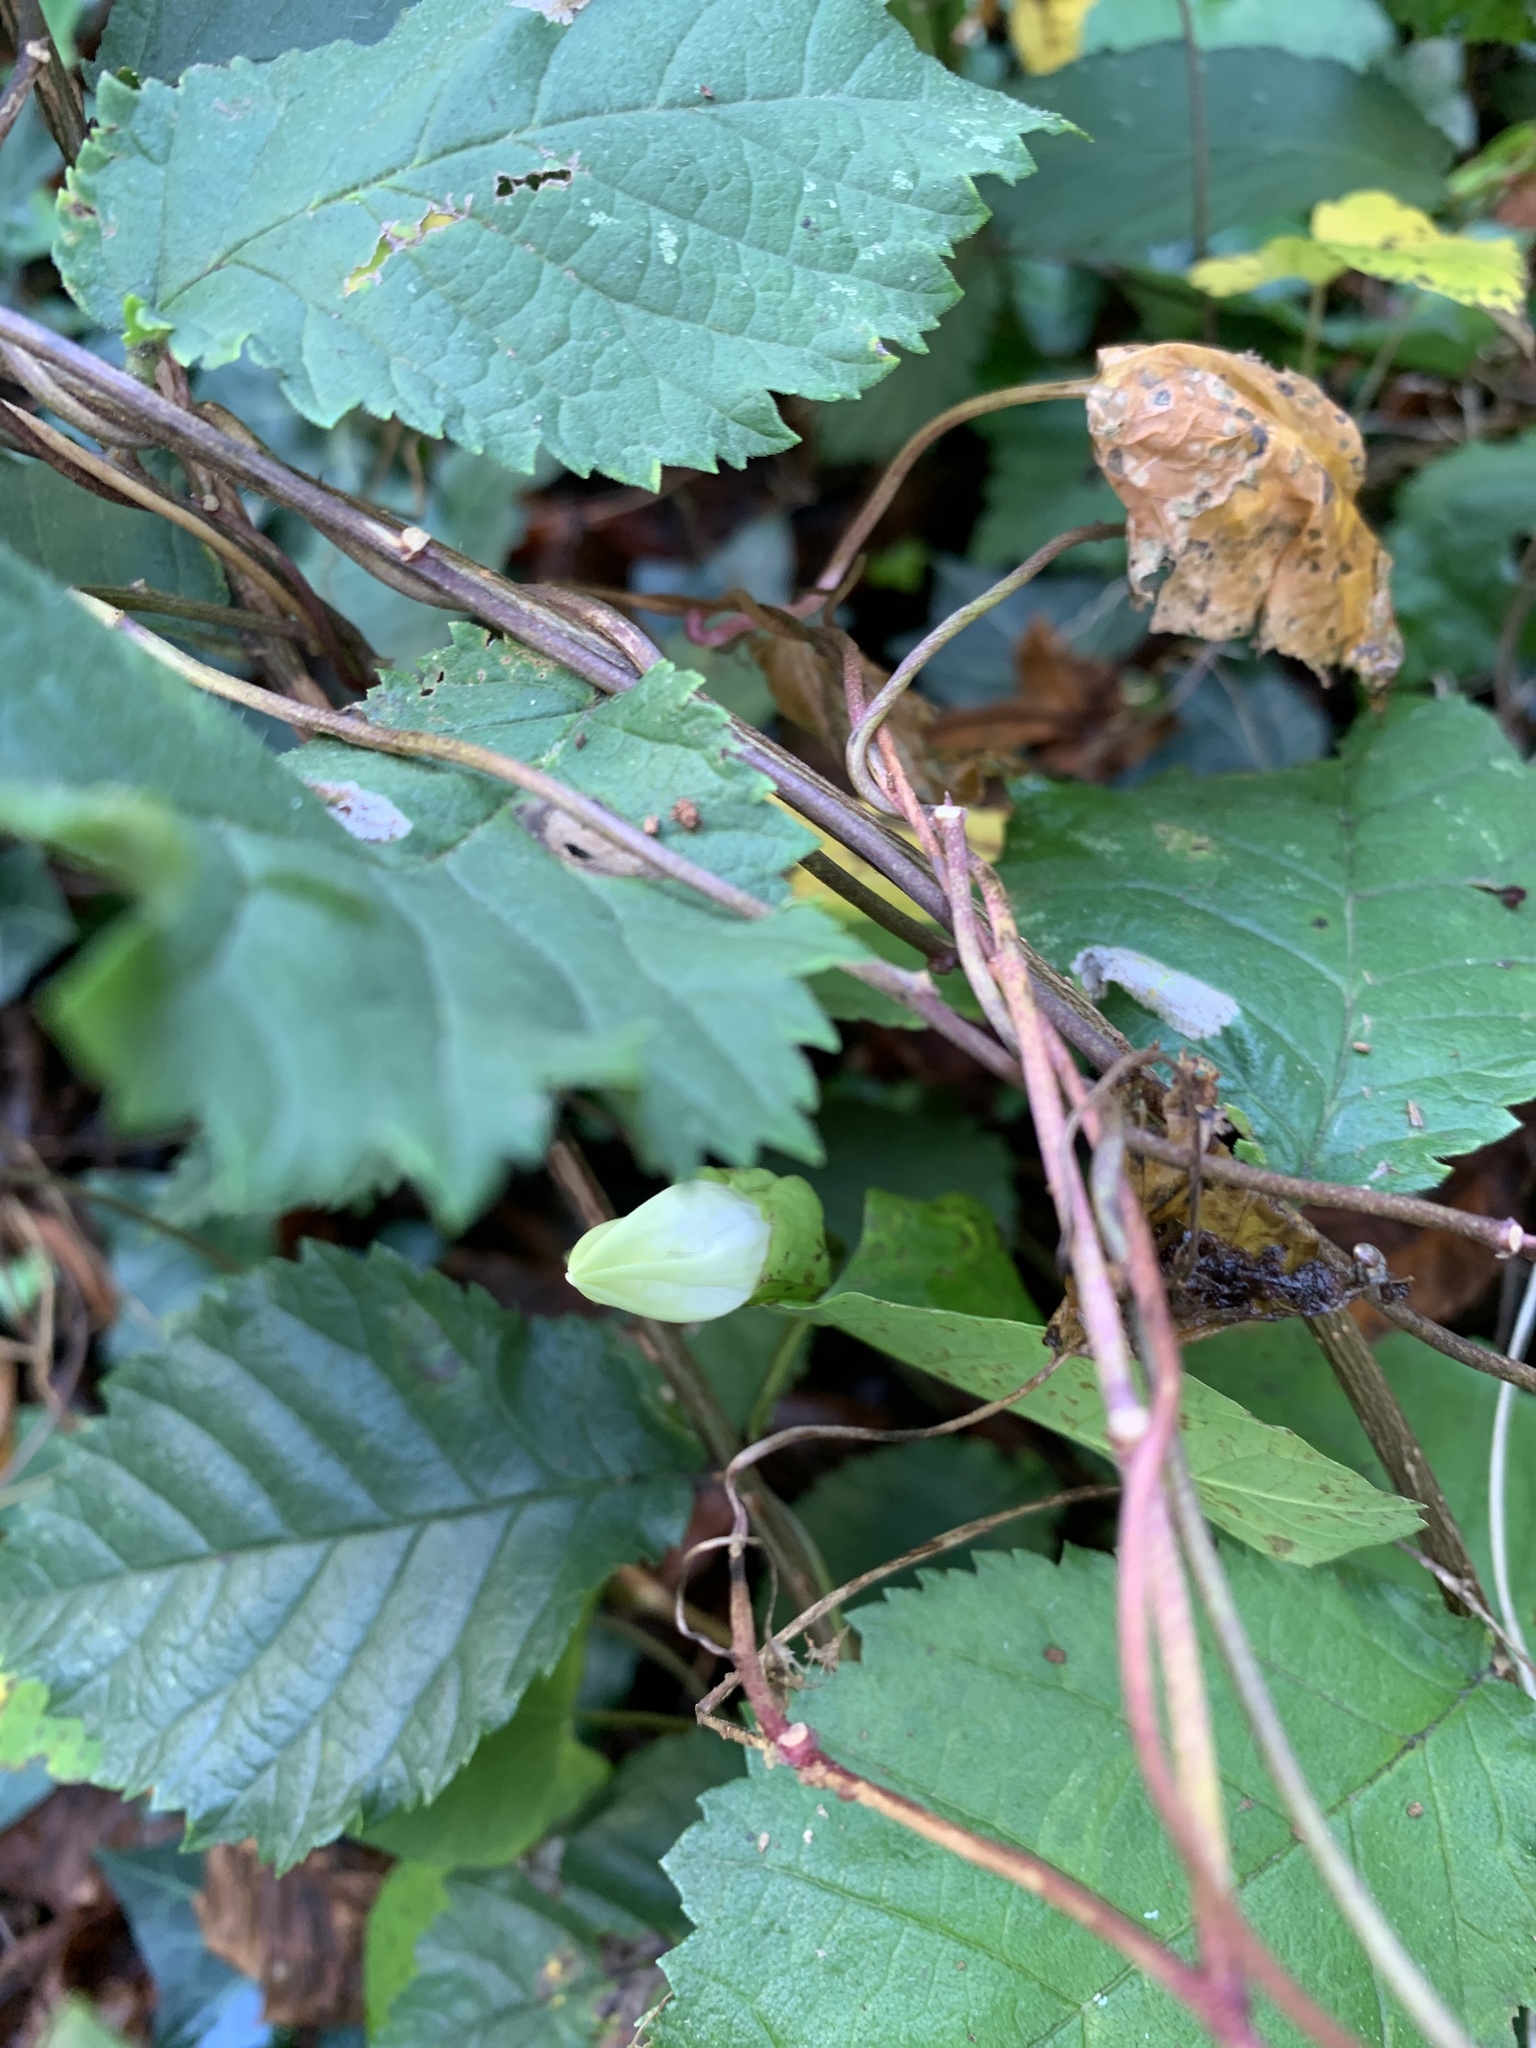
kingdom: Plantae
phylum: Tracheophyta
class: Magnoliopsida
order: Solanales
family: Convolvulaceae
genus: Calystegia
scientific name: Calystegia silvatica
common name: Large bindweed
